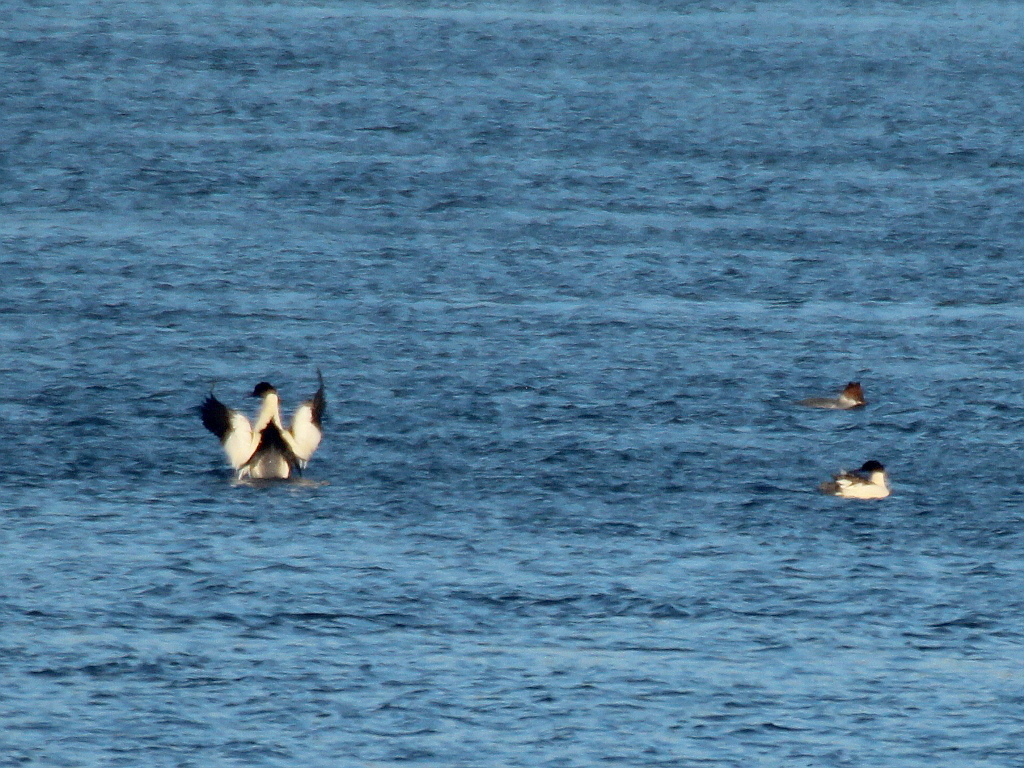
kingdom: Animalia
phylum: Chordata
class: Aves
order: Anseriformes
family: Anatidae
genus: Mergus
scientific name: Mergus merganser
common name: Common merganser
